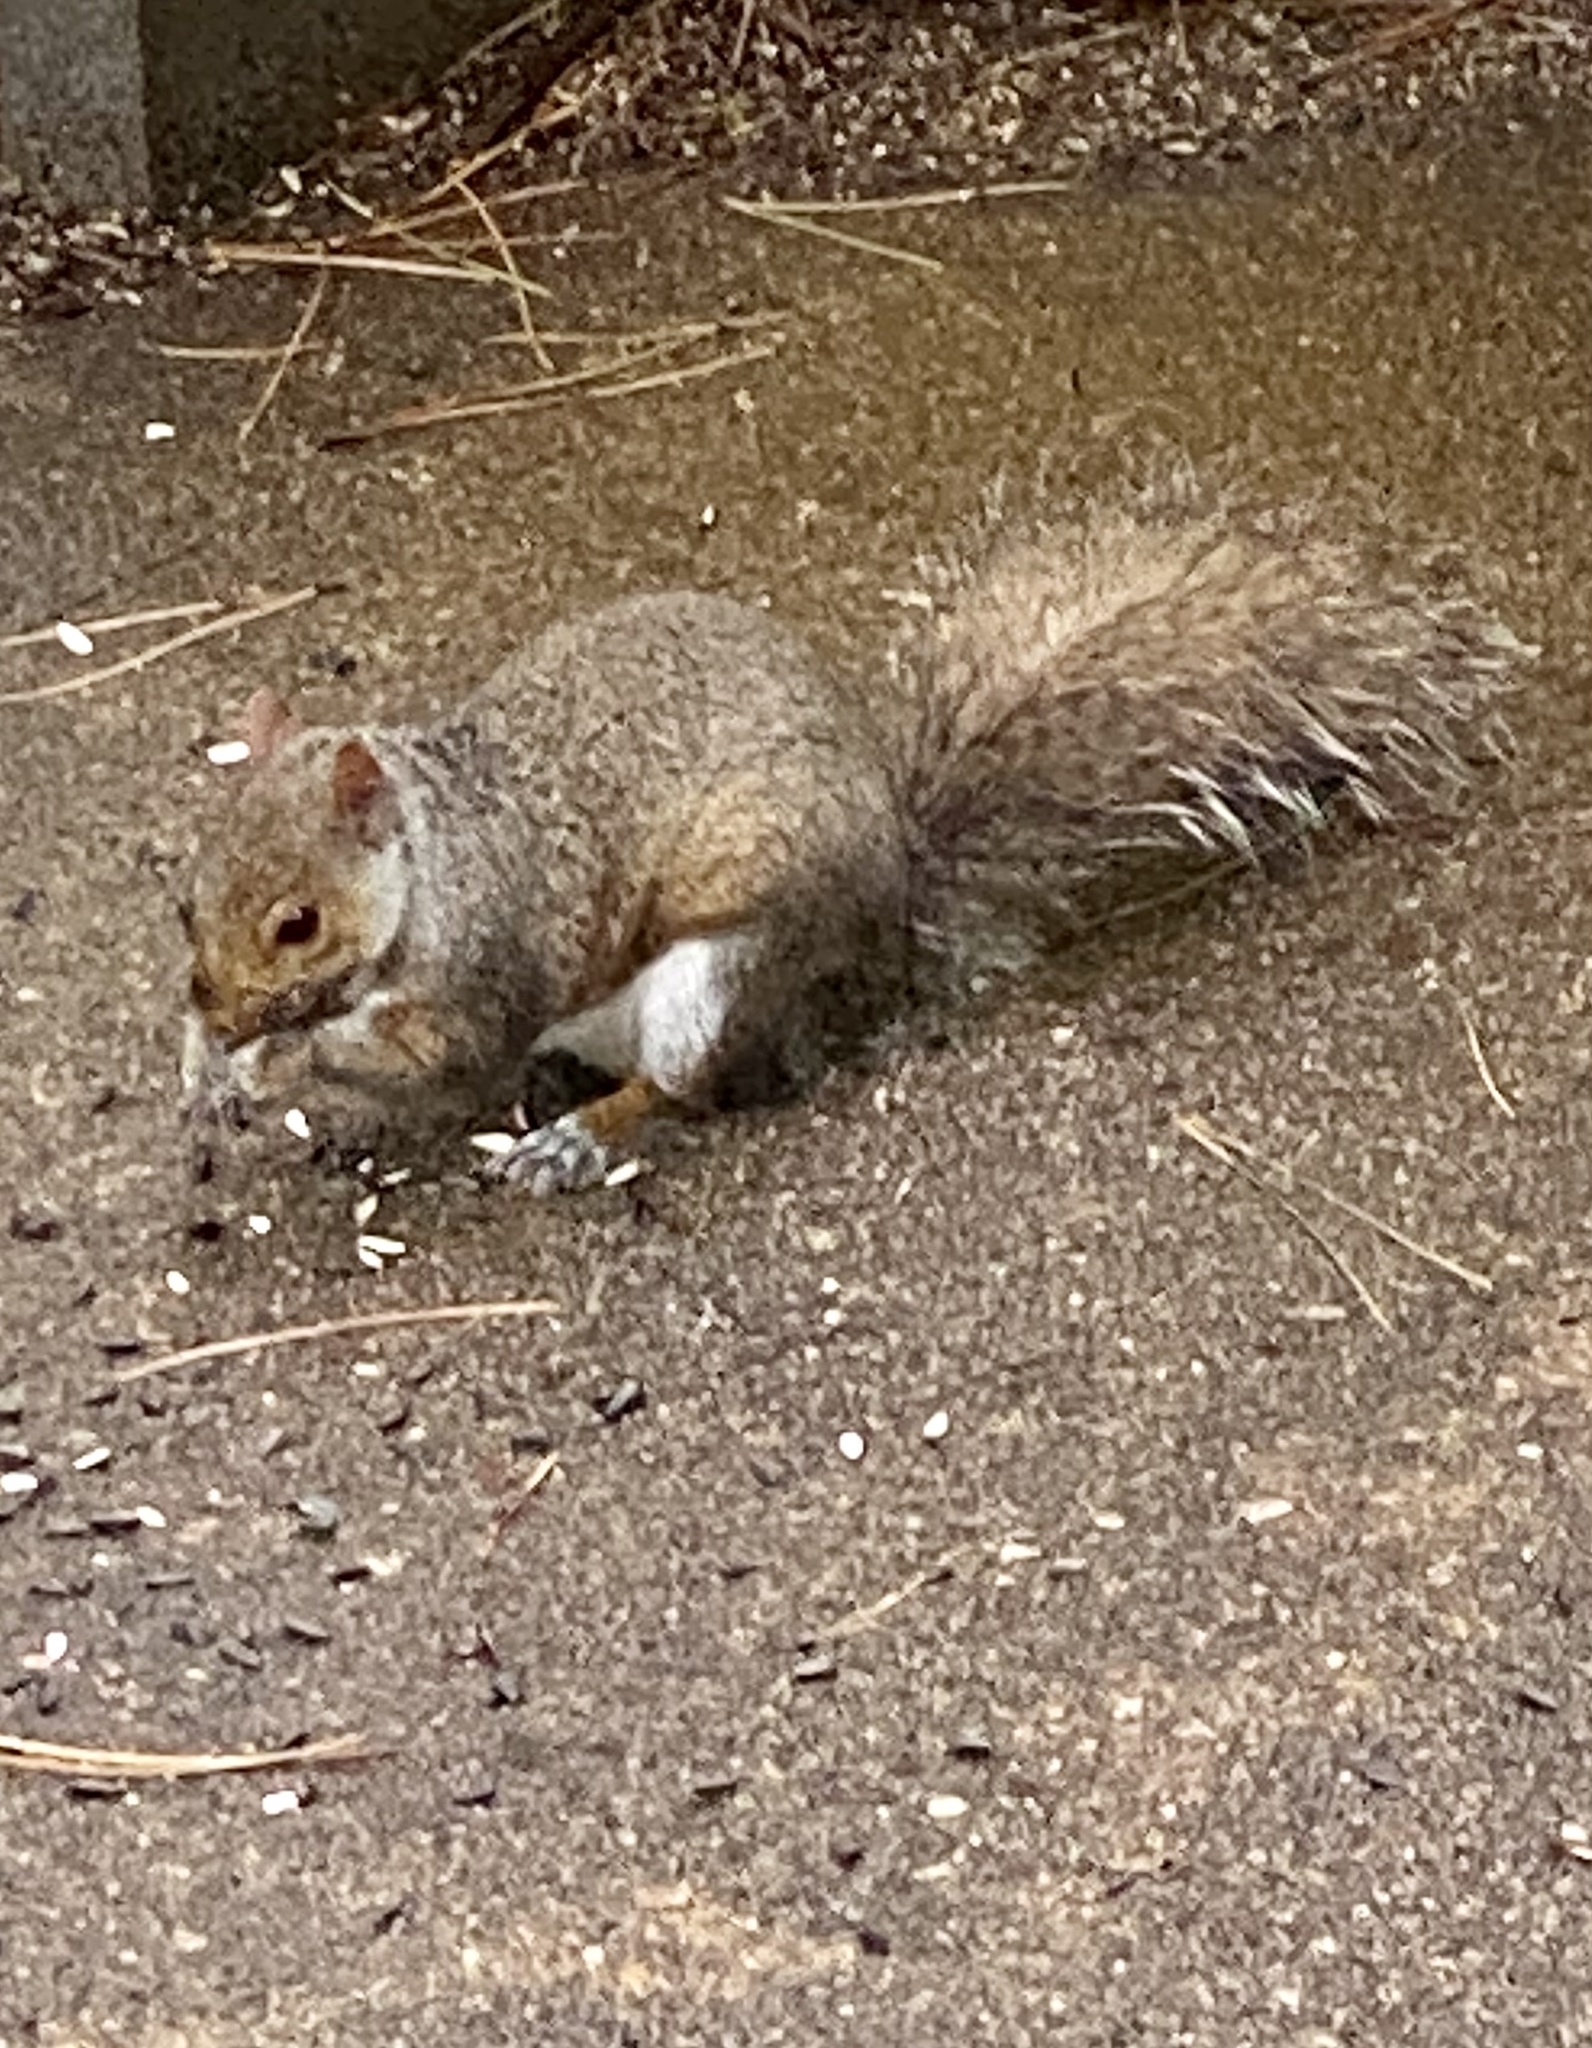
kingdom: Animalia
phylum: Chordata
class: Mammalia
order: Rodentia
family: Sciuridae
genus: Sciurus
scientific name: Sciurus carolinensis
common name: Eastern gray squirrel
